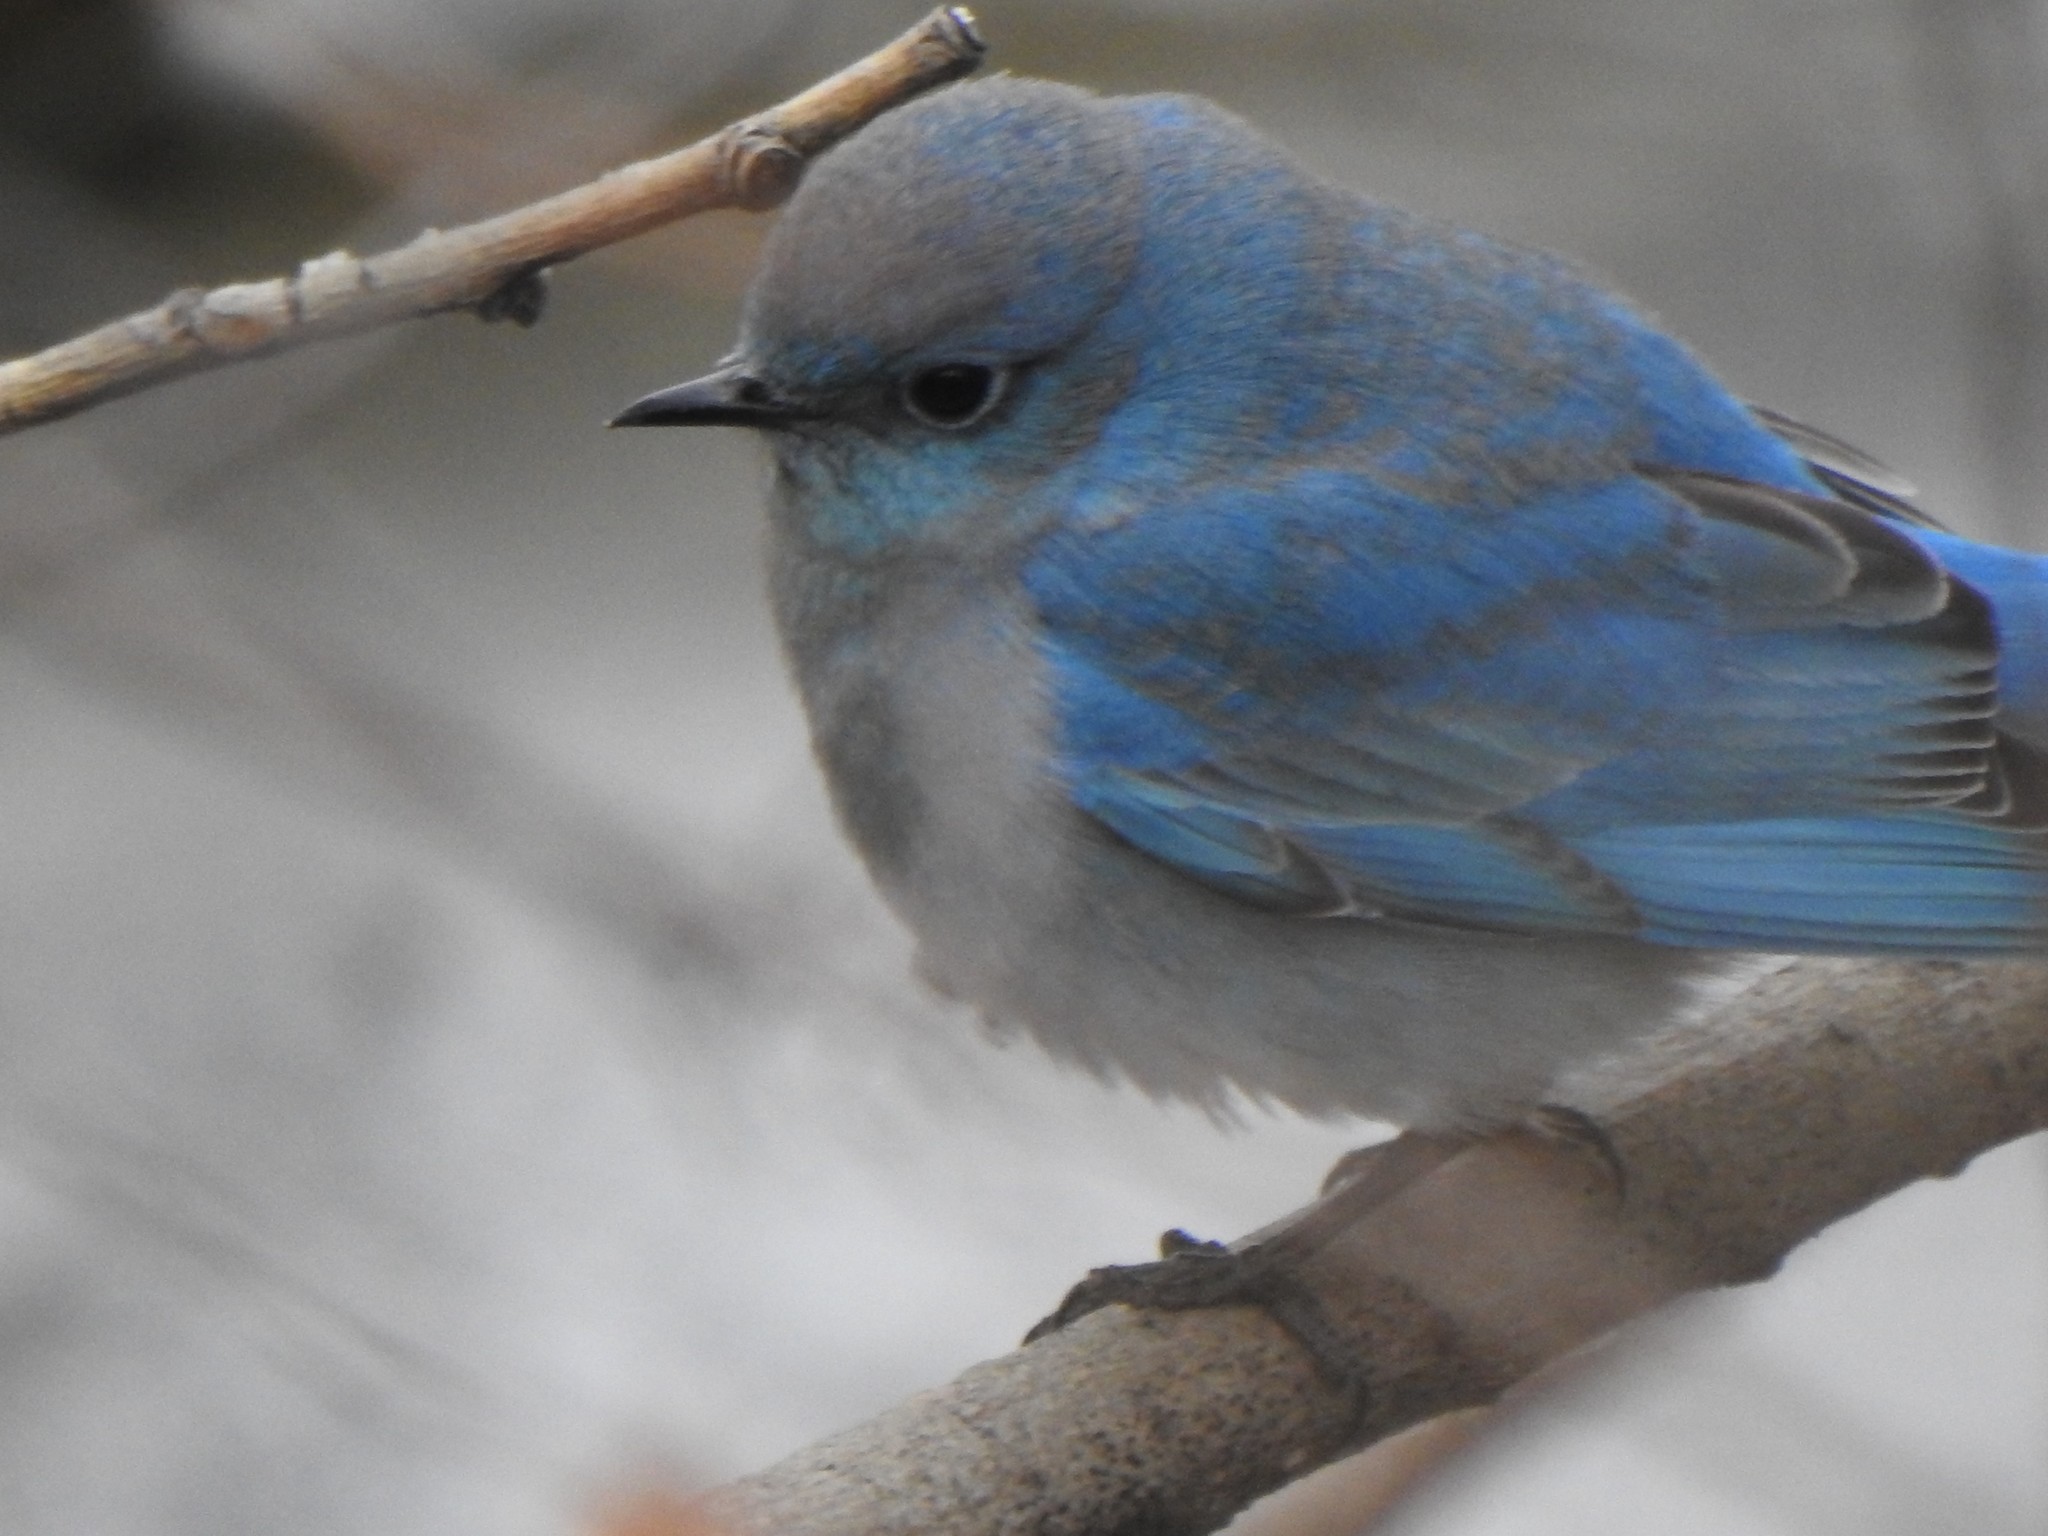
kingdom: Animalia
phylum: Chordata
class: Aves
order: Passeriformes
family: Turdidae
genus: Sialia
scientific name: Sialia currucoides
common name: Mountain bluebird
